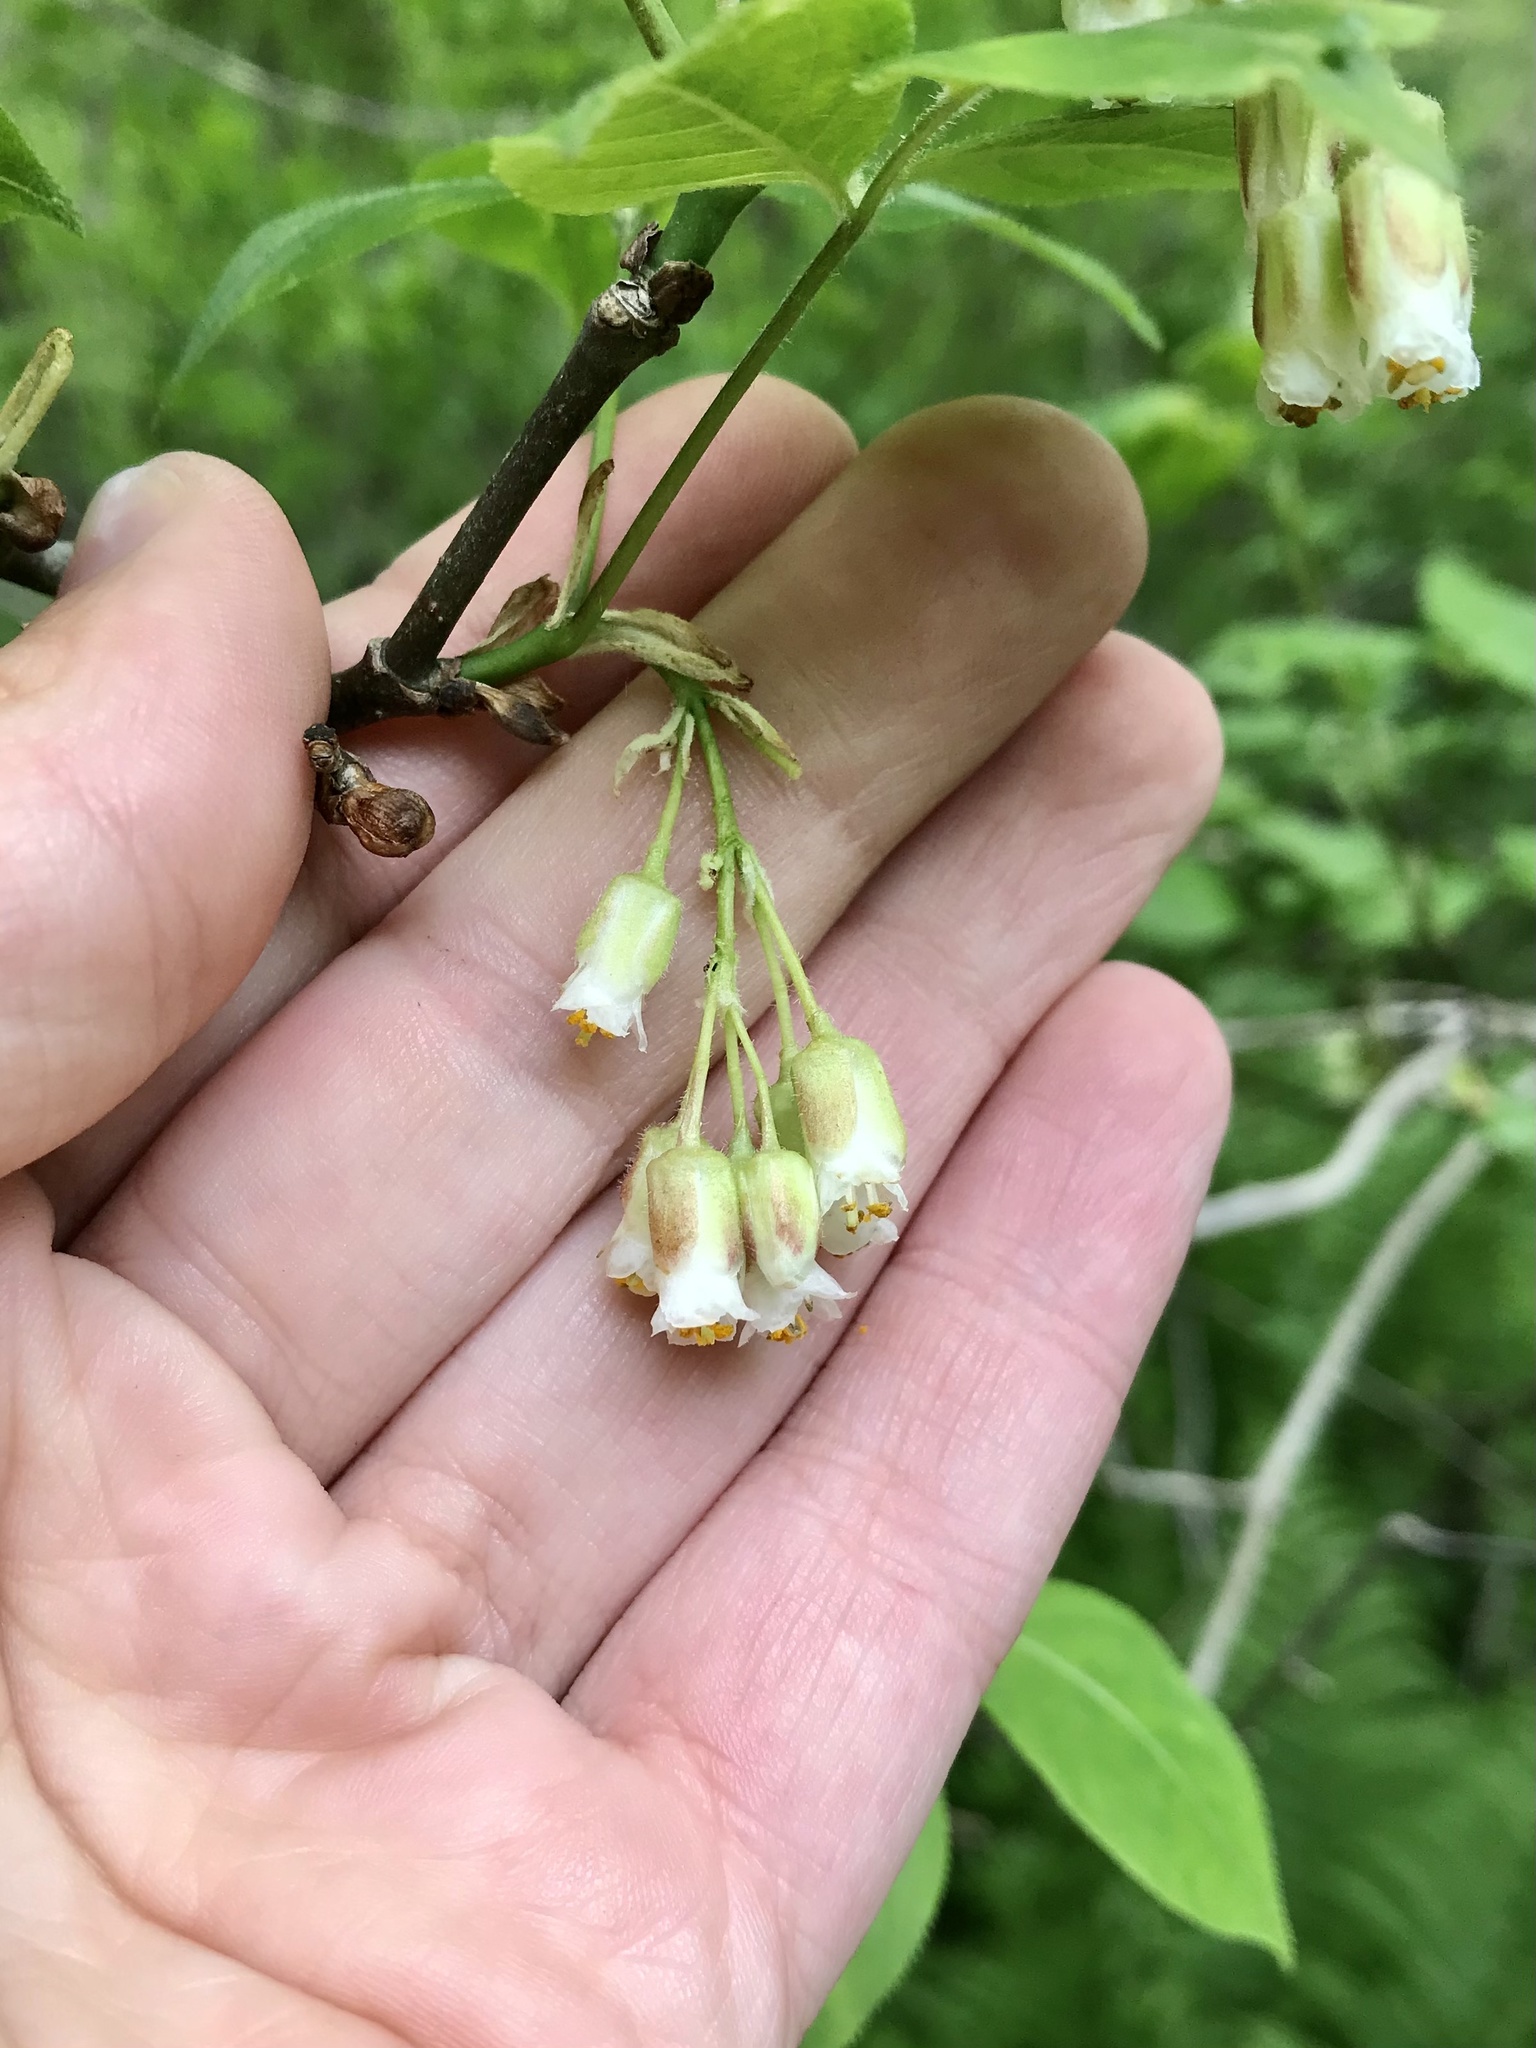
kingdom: Plantae
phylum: Tracheophyta
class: Magnoliopsida
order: Crossosomatales
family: Staphyleaceae
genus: Staphylea
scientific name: Staphylea trifolia
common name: American bladdernut
